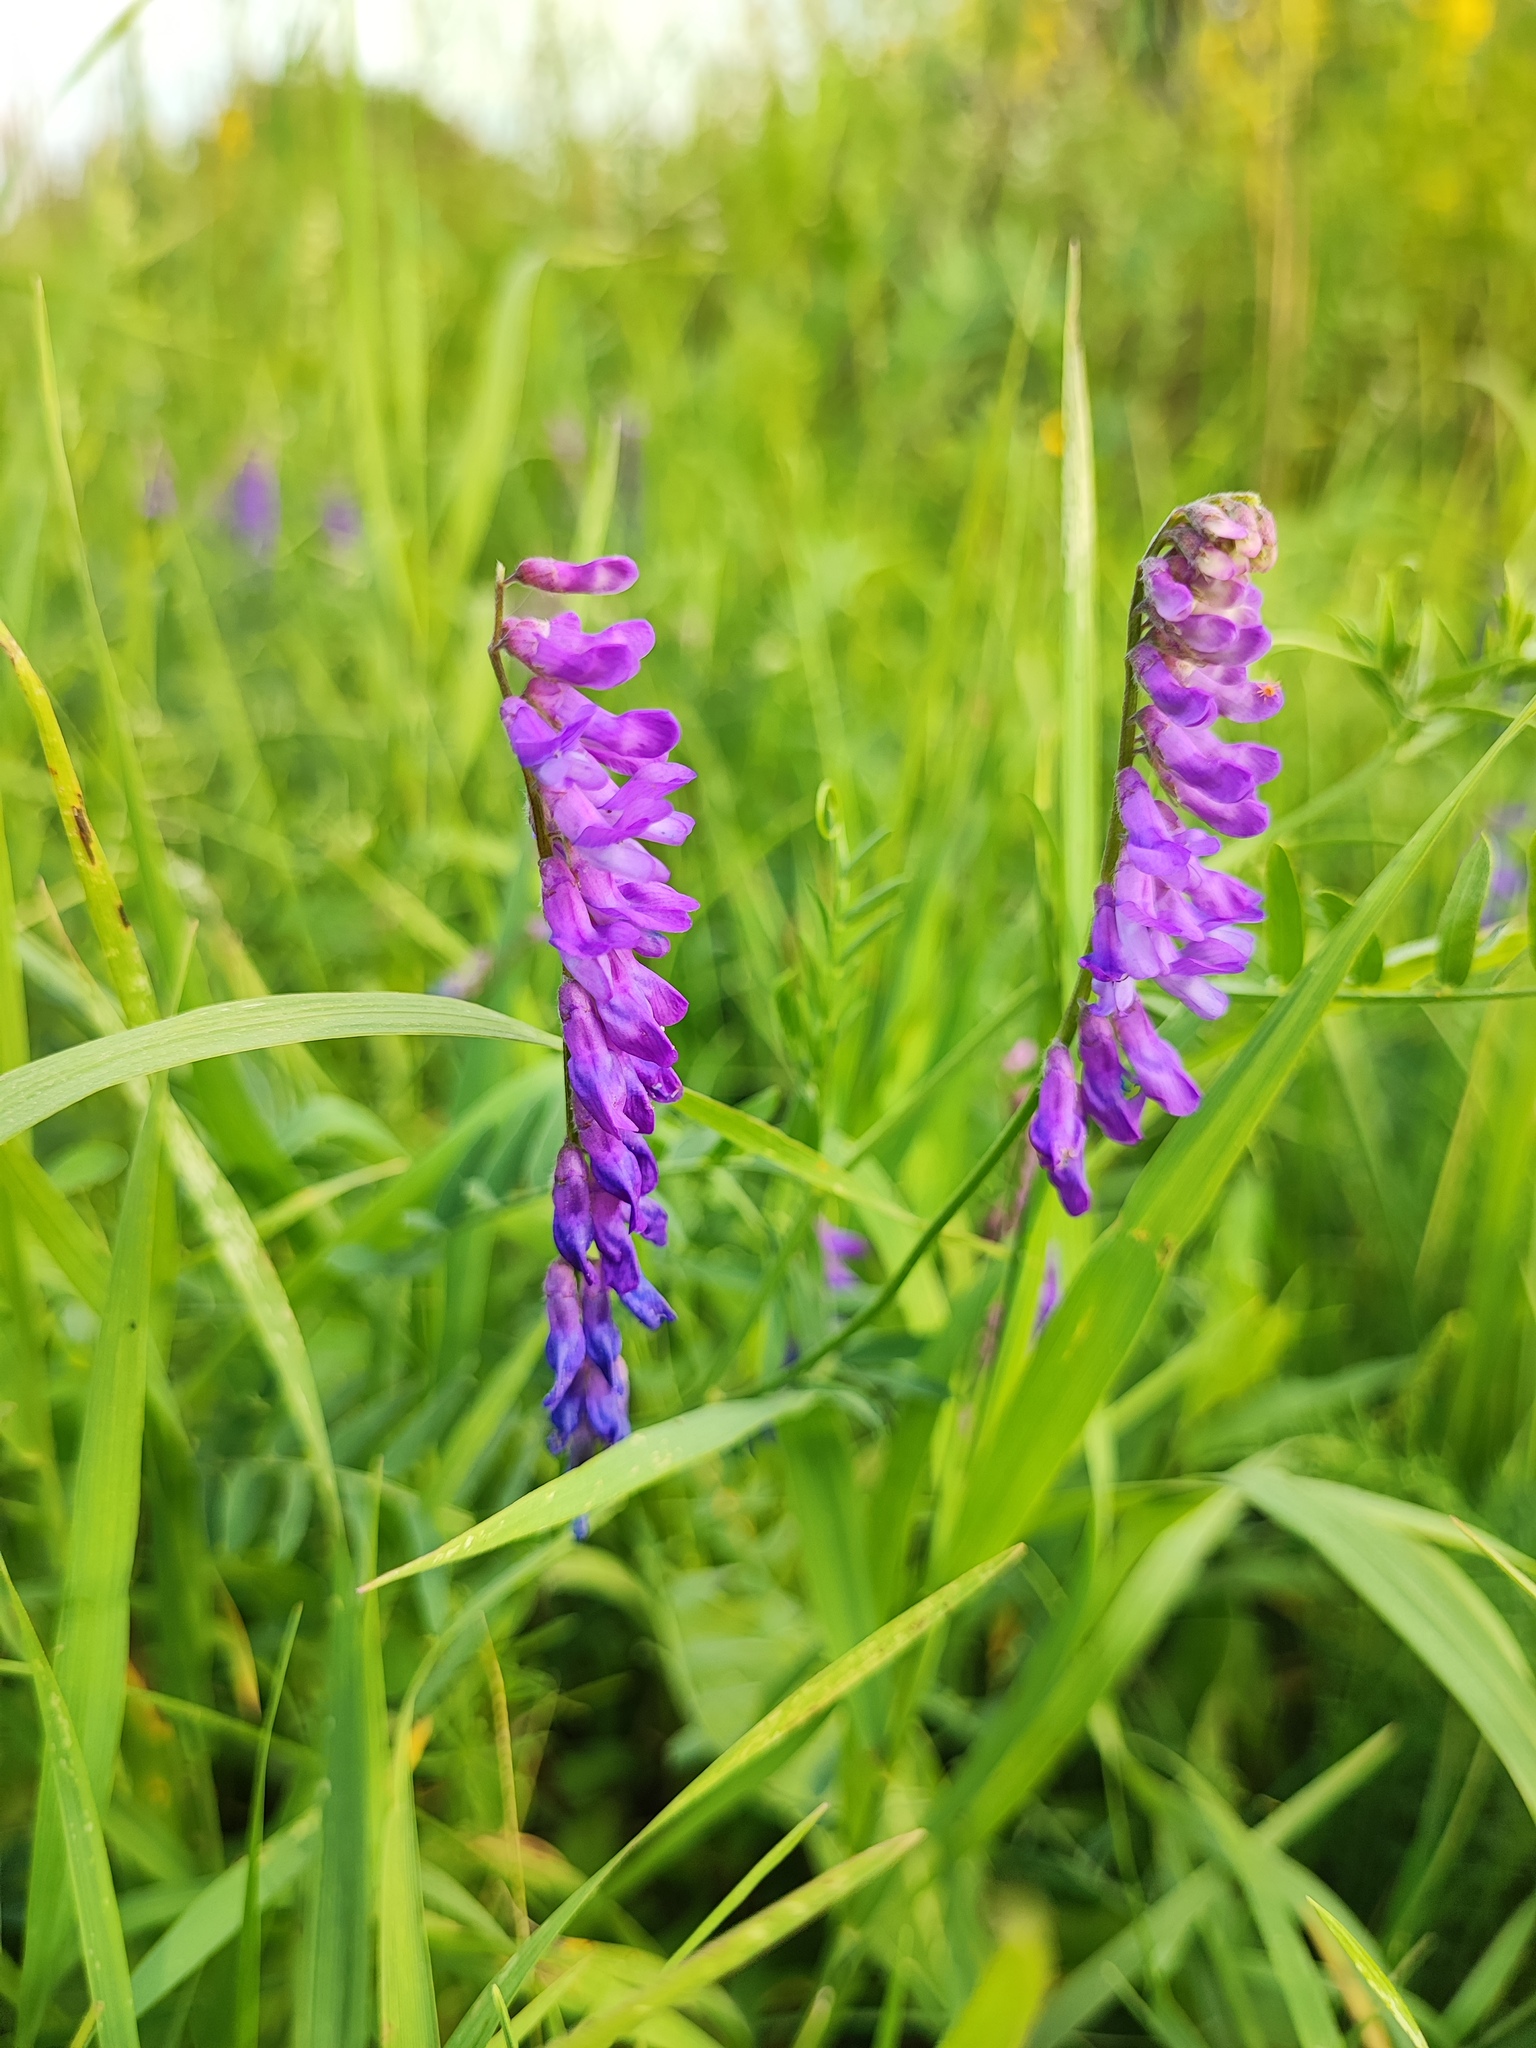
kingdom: Plantae
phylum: Tracheophyta
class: Magnoliopsida
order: Fabales
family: Fabaceae
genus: Vicia
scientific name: Vicia cracca
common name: Bird vetch
